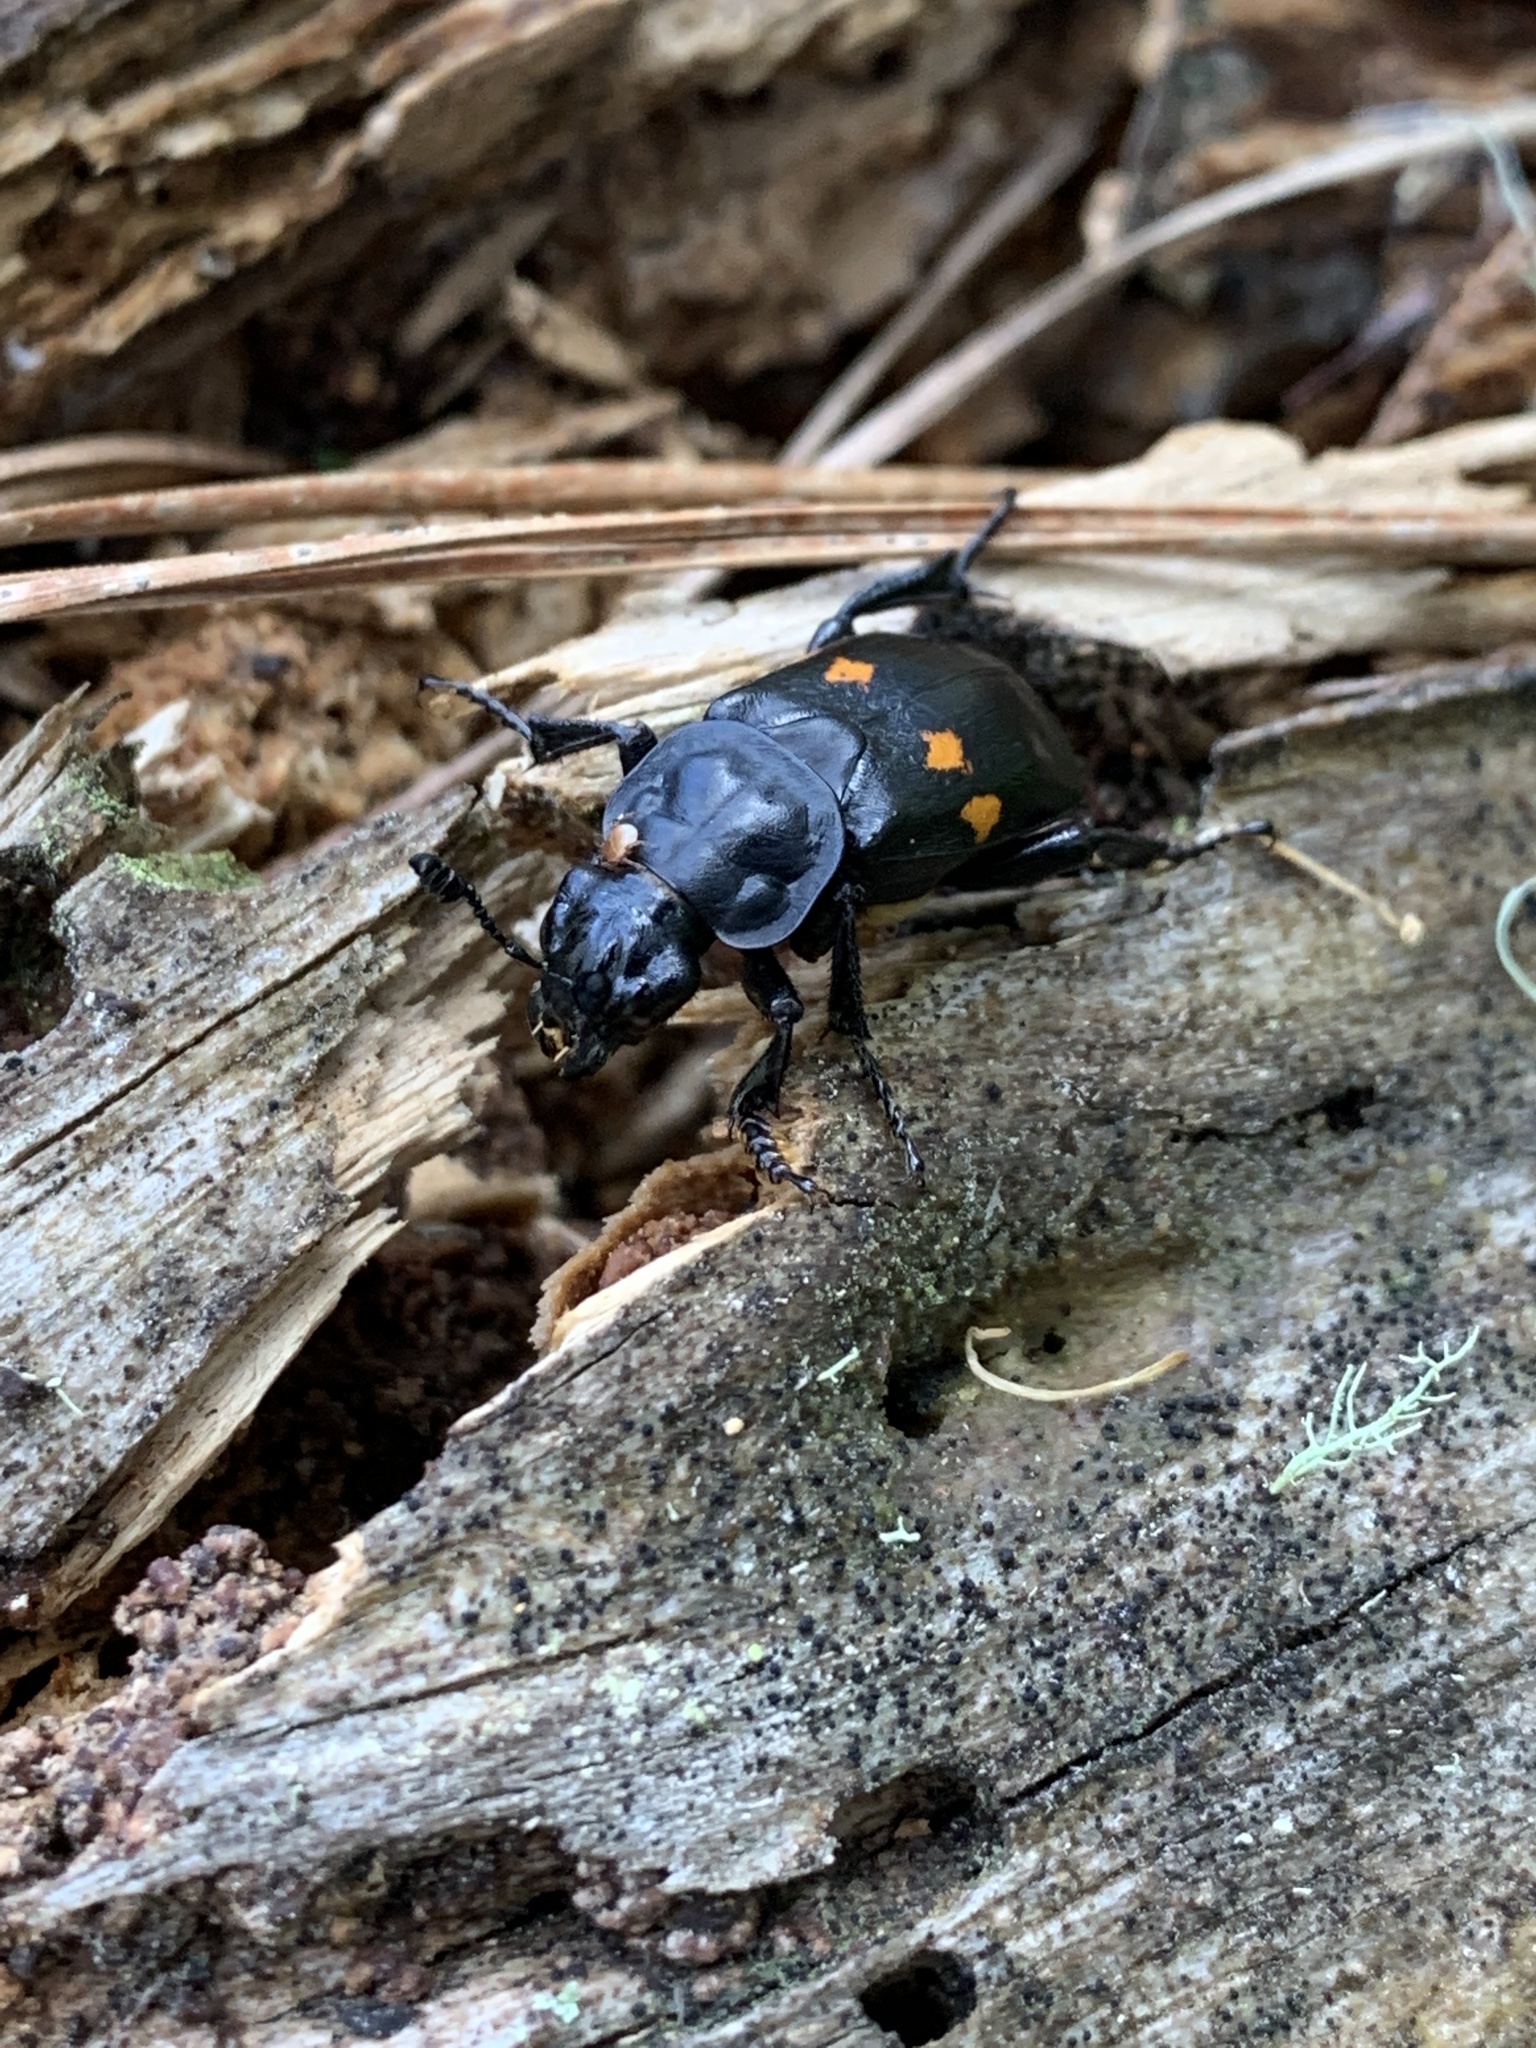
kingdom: Animalia
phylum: Arthropoda
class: Insecta
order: Coleoptera
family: Staphylinidae
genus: Nicrophorus
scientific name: Nicrophorus defodiens
